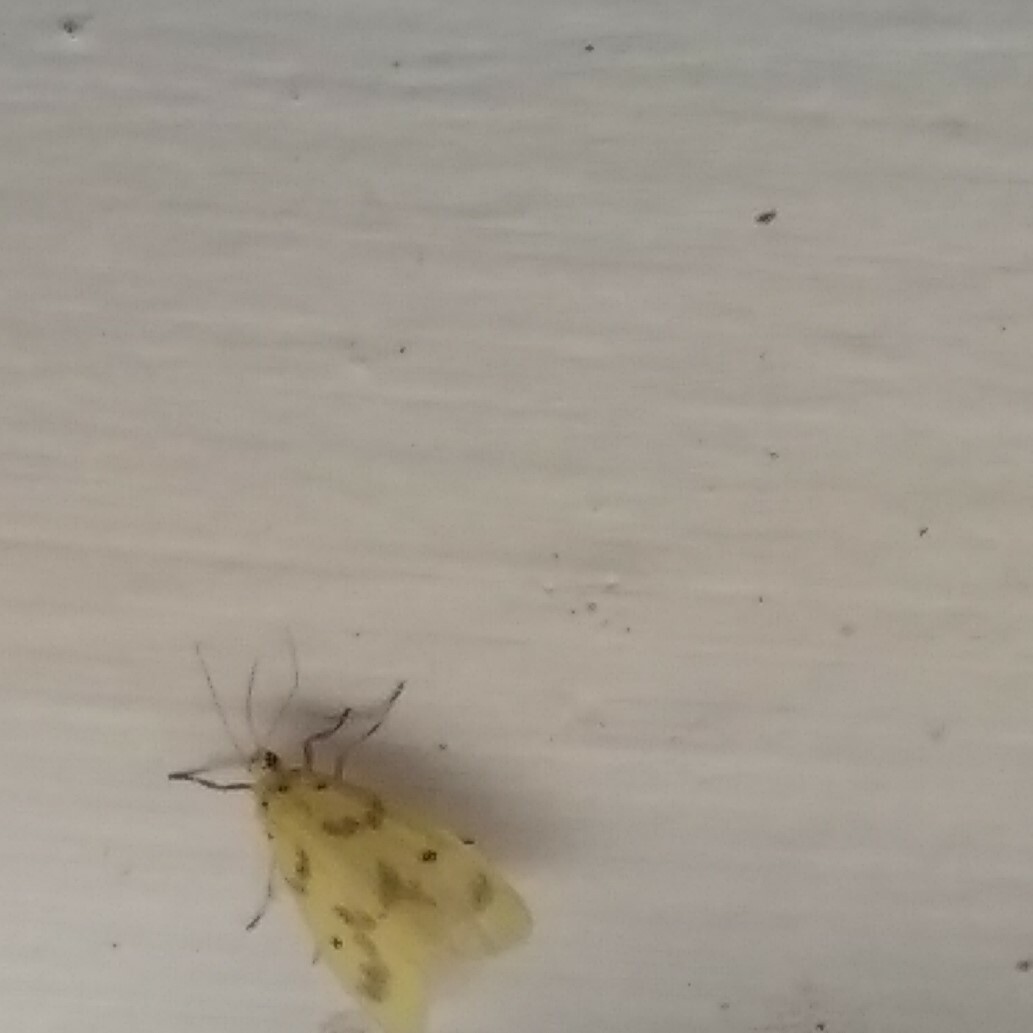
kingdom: Animalia
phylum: Arthropoda
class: Insecta
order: Lepidoptera
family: Erebidae
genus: Miltochrista
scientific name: Miltochrista undulata
